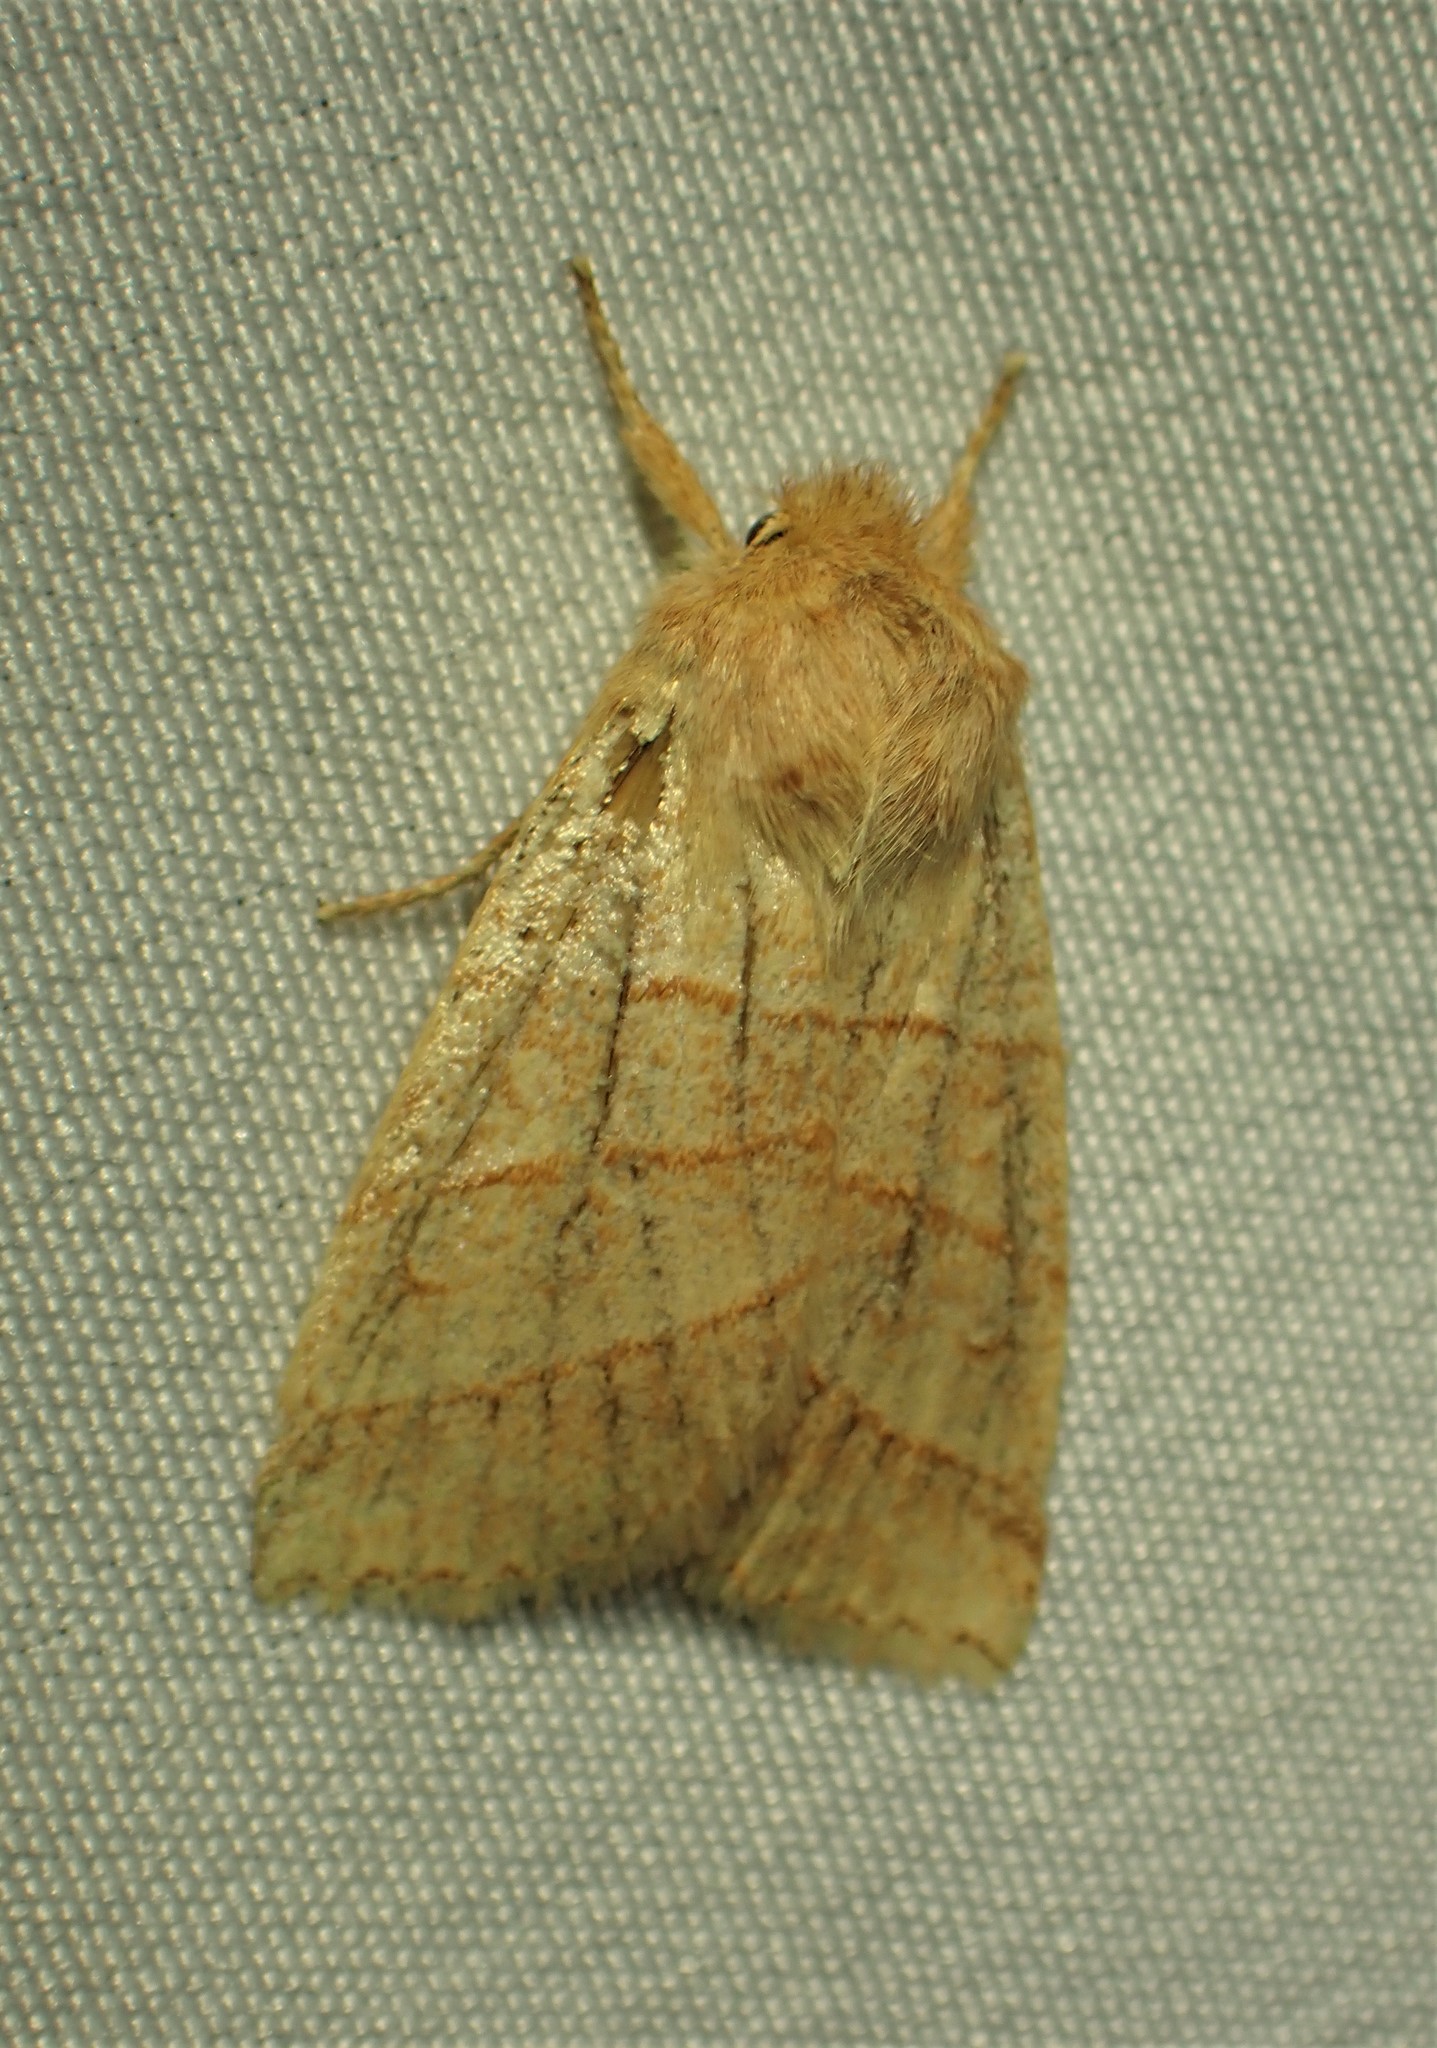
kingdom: Animalia
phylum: Arthropoda
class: Insecta
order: Lepidoptera
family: Noctuidae
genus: Pyreferra
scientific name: Pyreferra citrombra
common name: Citrine sallow
